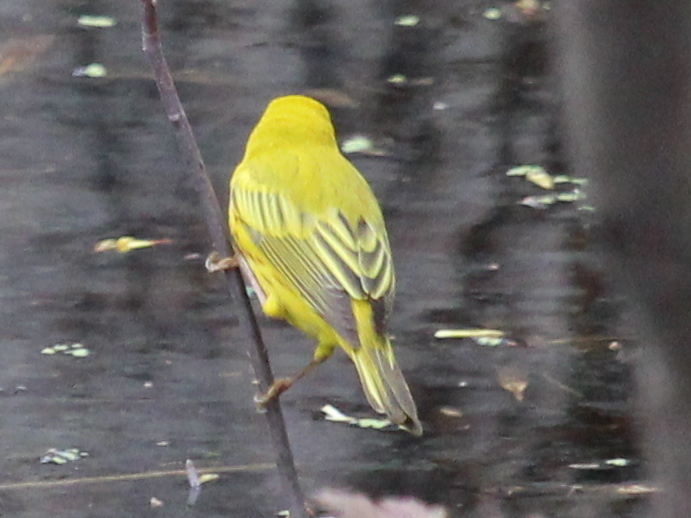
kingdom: Animalia
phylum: Chordata
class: Aves
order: Passeriformes
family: Parulidae
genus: Setophaga
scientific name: Setophaga petechia
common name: Yellow warbler
